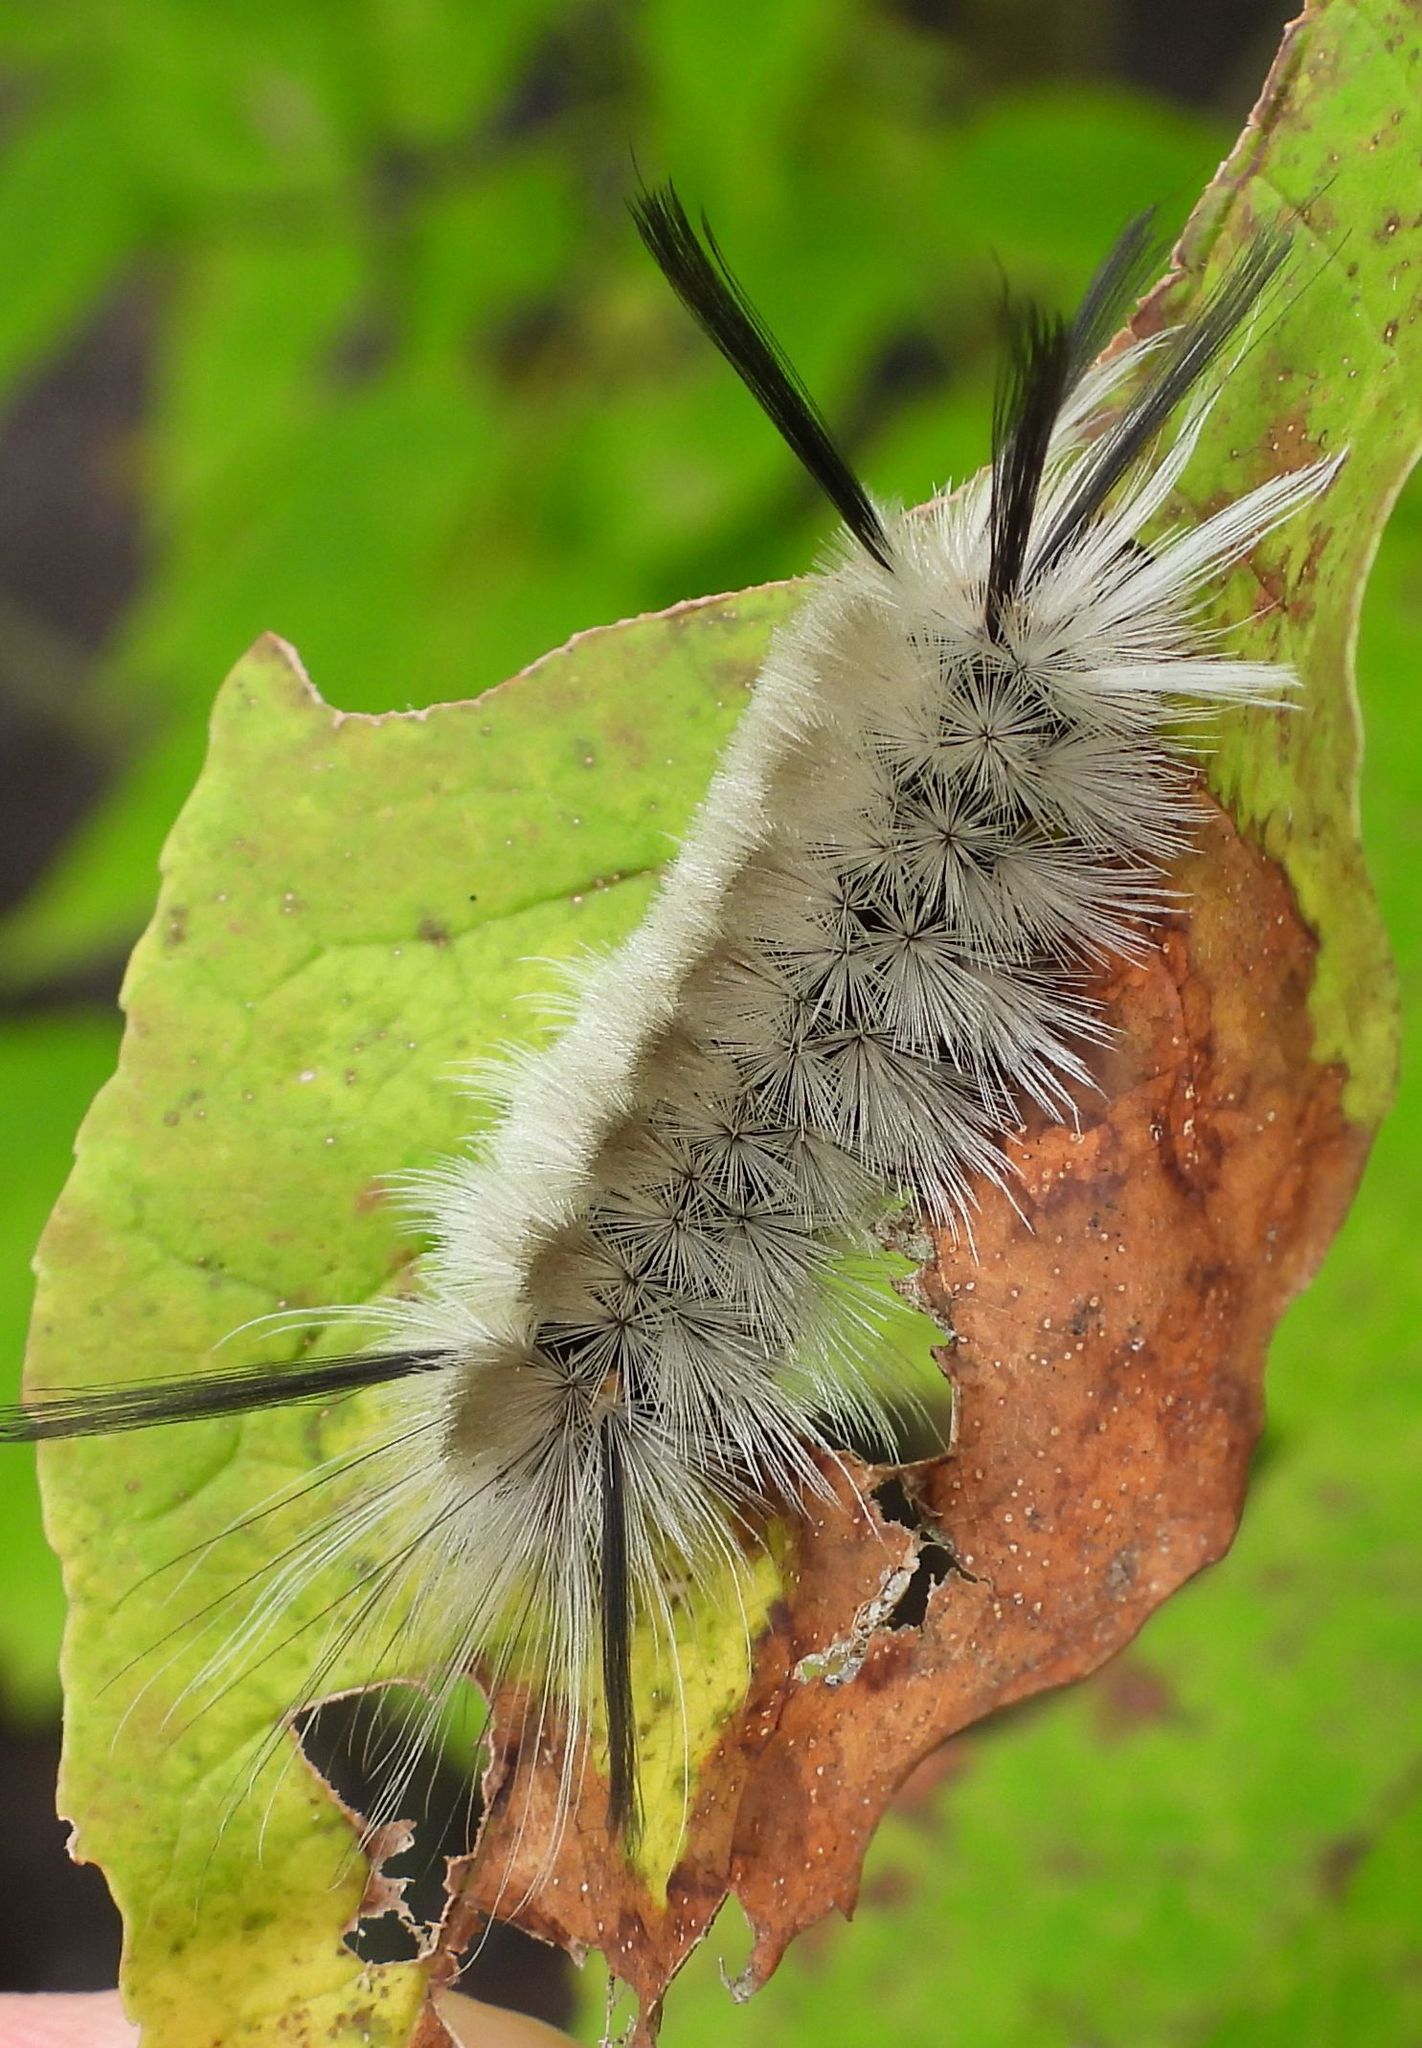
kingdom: Animalia
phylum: Arthropoda
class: Insecta
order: Lepidoptera
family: Erebidae
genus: Halysidota
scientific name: Halysidota tessellaris
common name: Banded tussock moth
